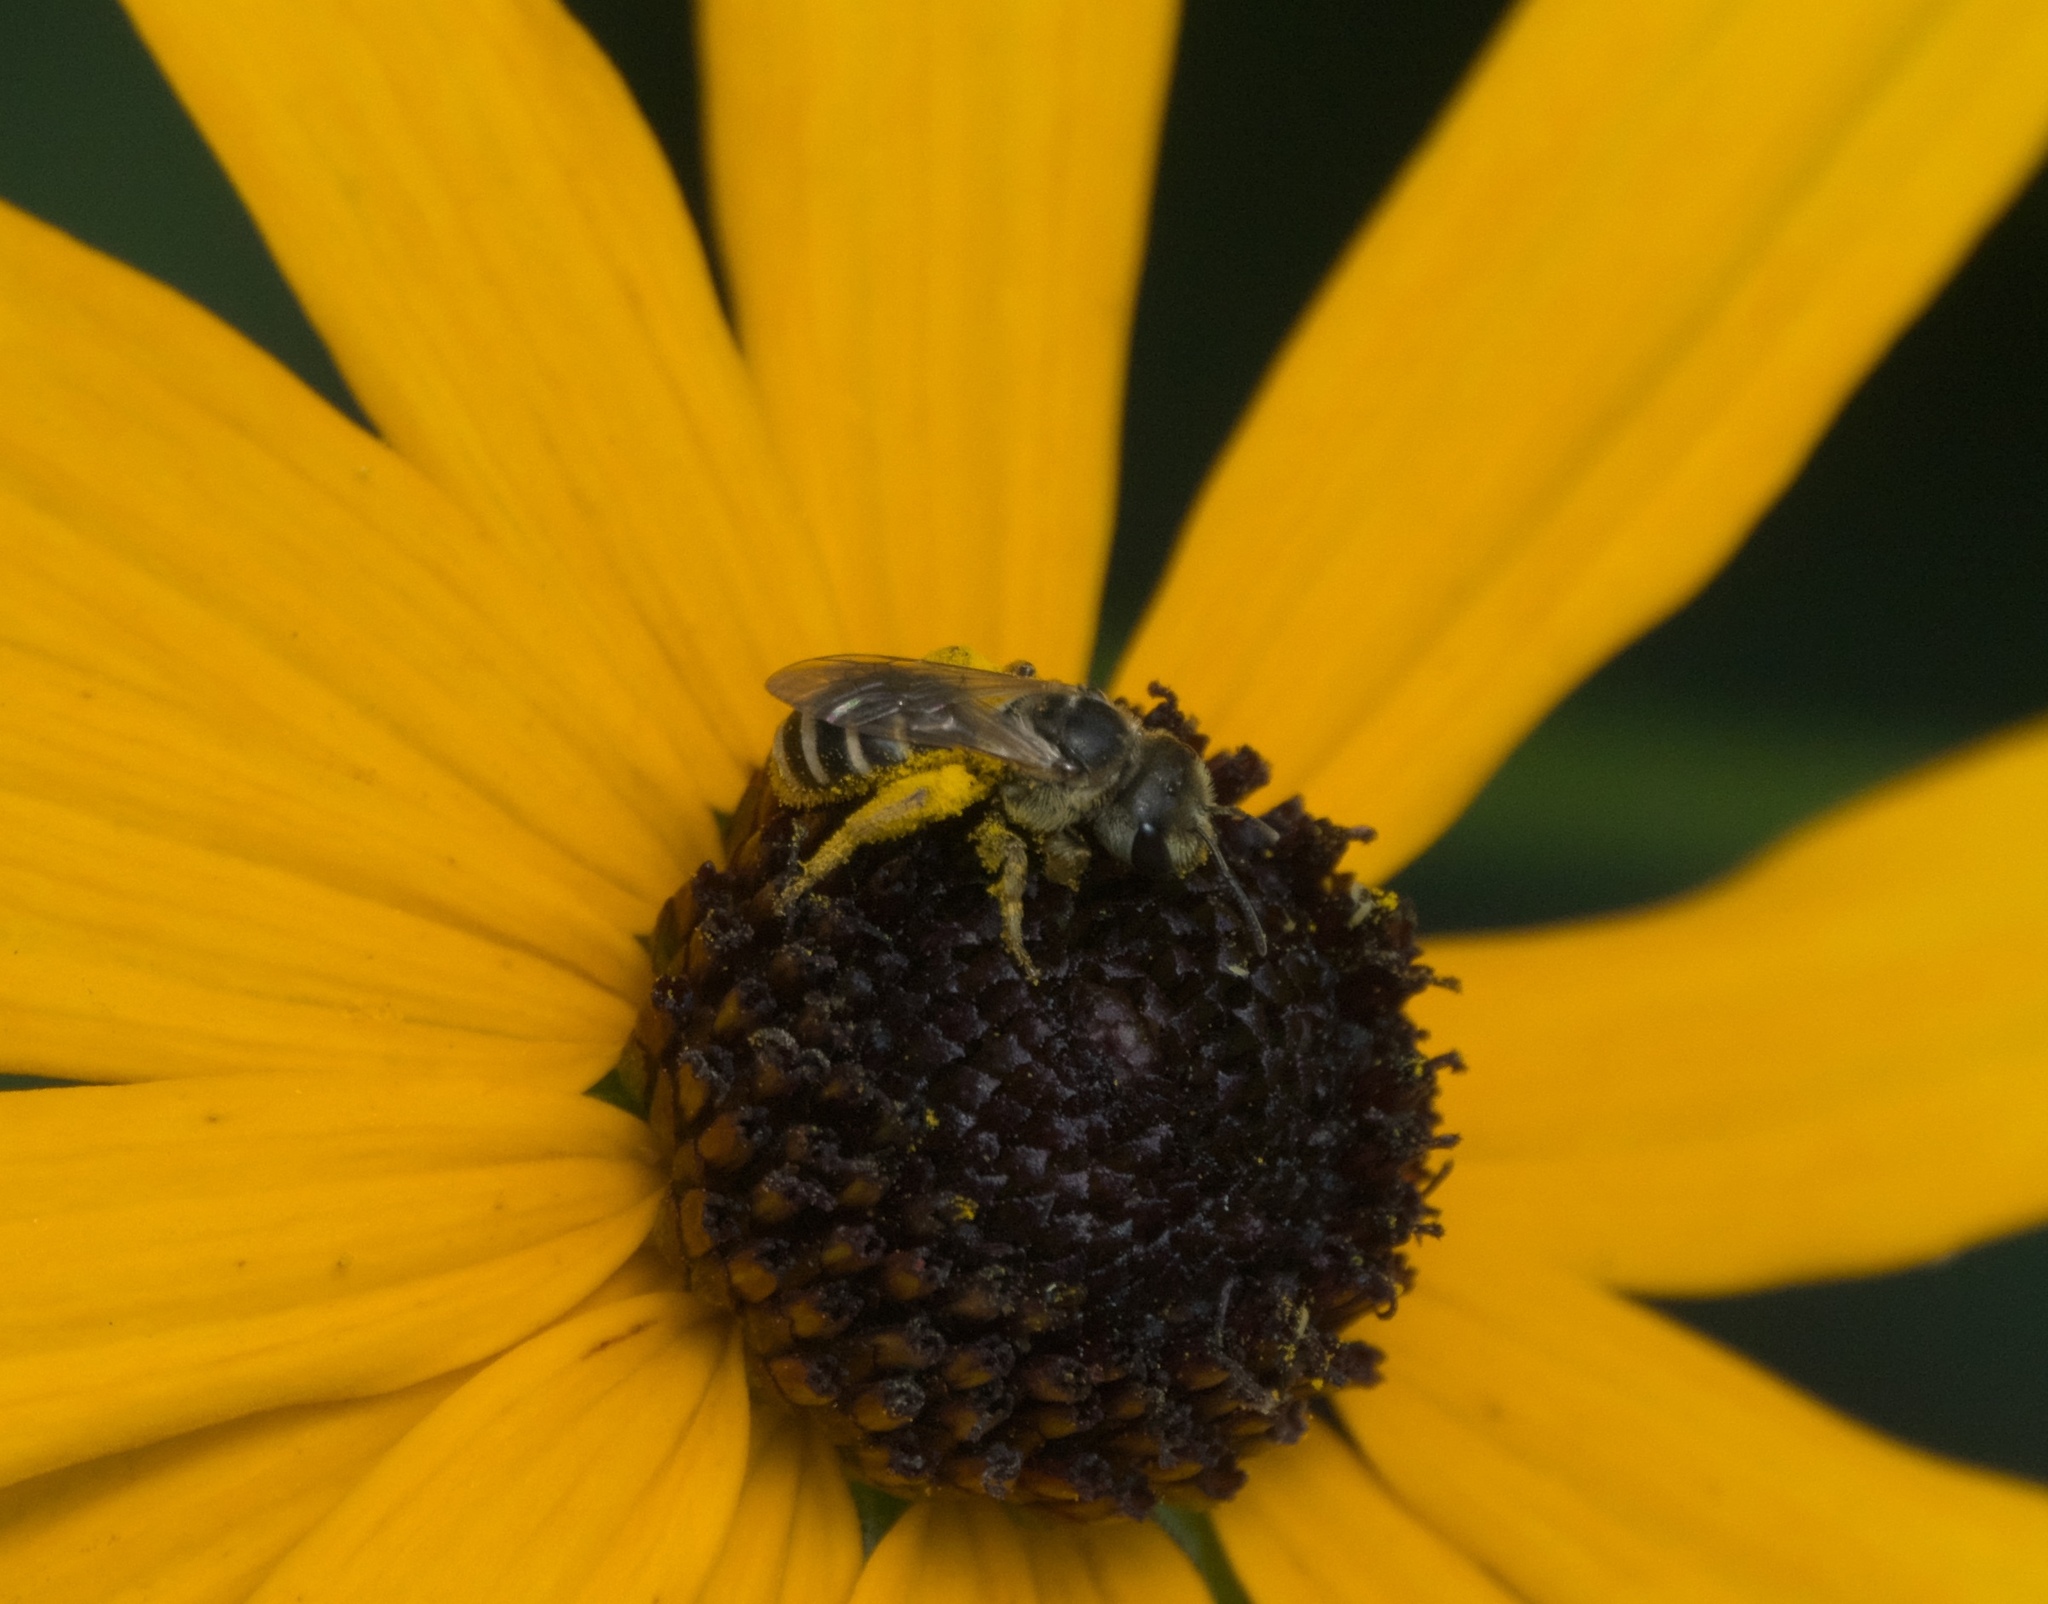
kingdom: Animalia
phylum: Arthropoda
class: Insecta
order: Hymenoptera
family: Halictidae
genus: Halictus
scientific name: Halictus ligatus
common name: Ligated furrow bee
